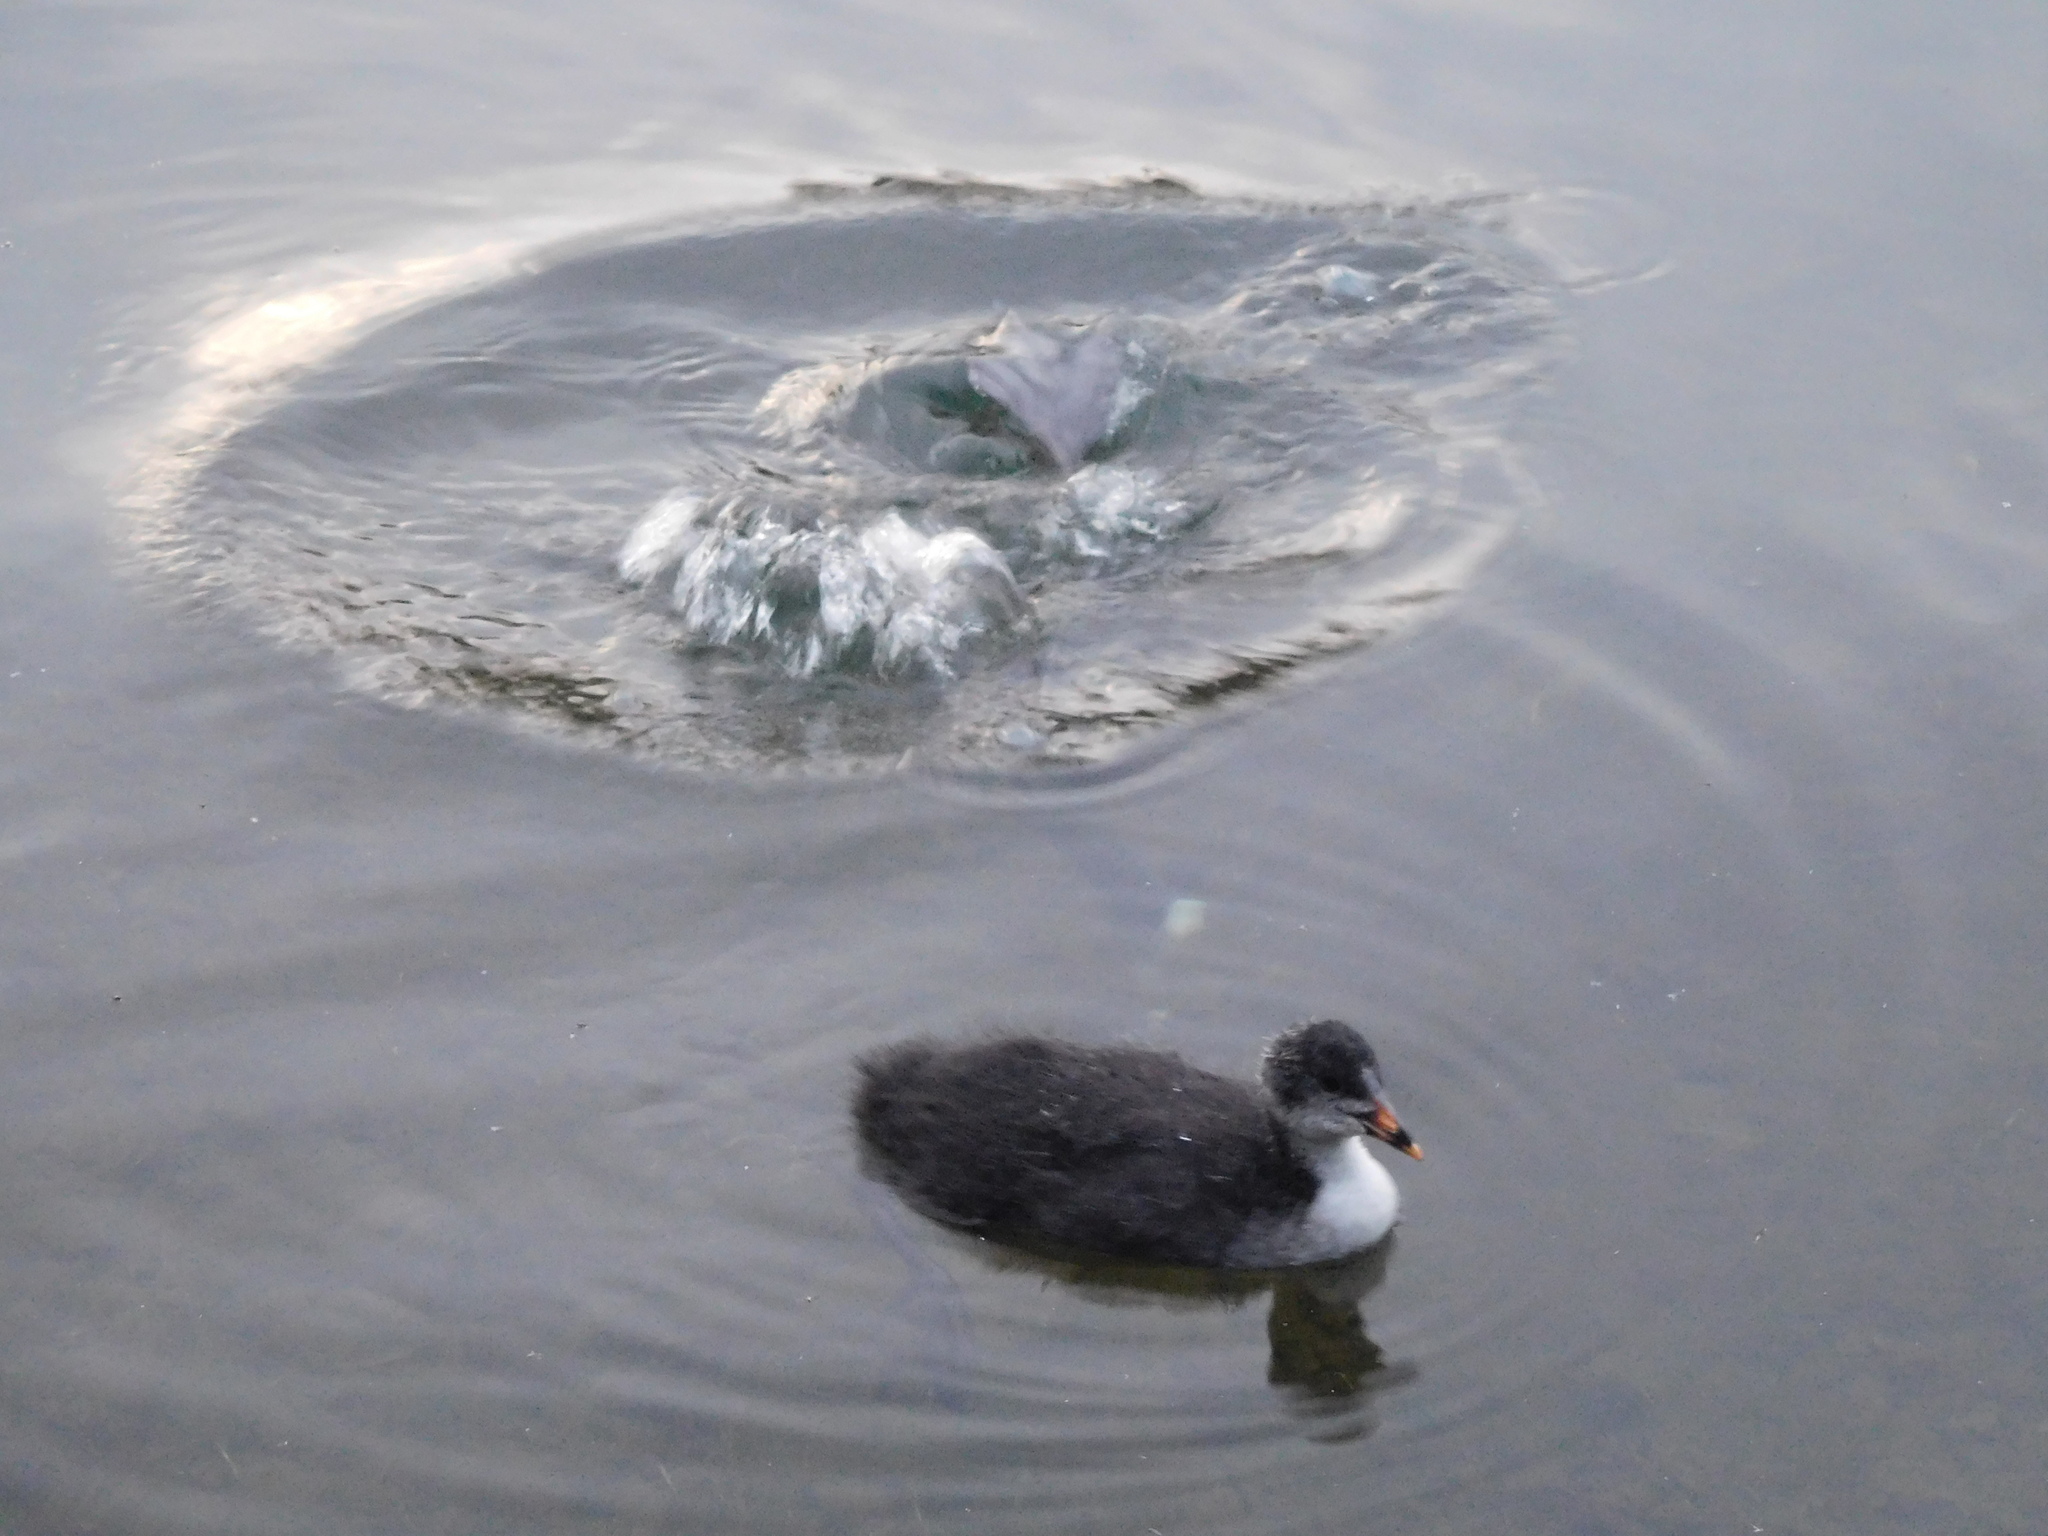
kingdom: Animalia
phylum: Chordata
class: Aves
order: Gruiformes
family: Rallidae
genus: Fulica
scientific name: Fulica atra
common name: Eurasian coot
